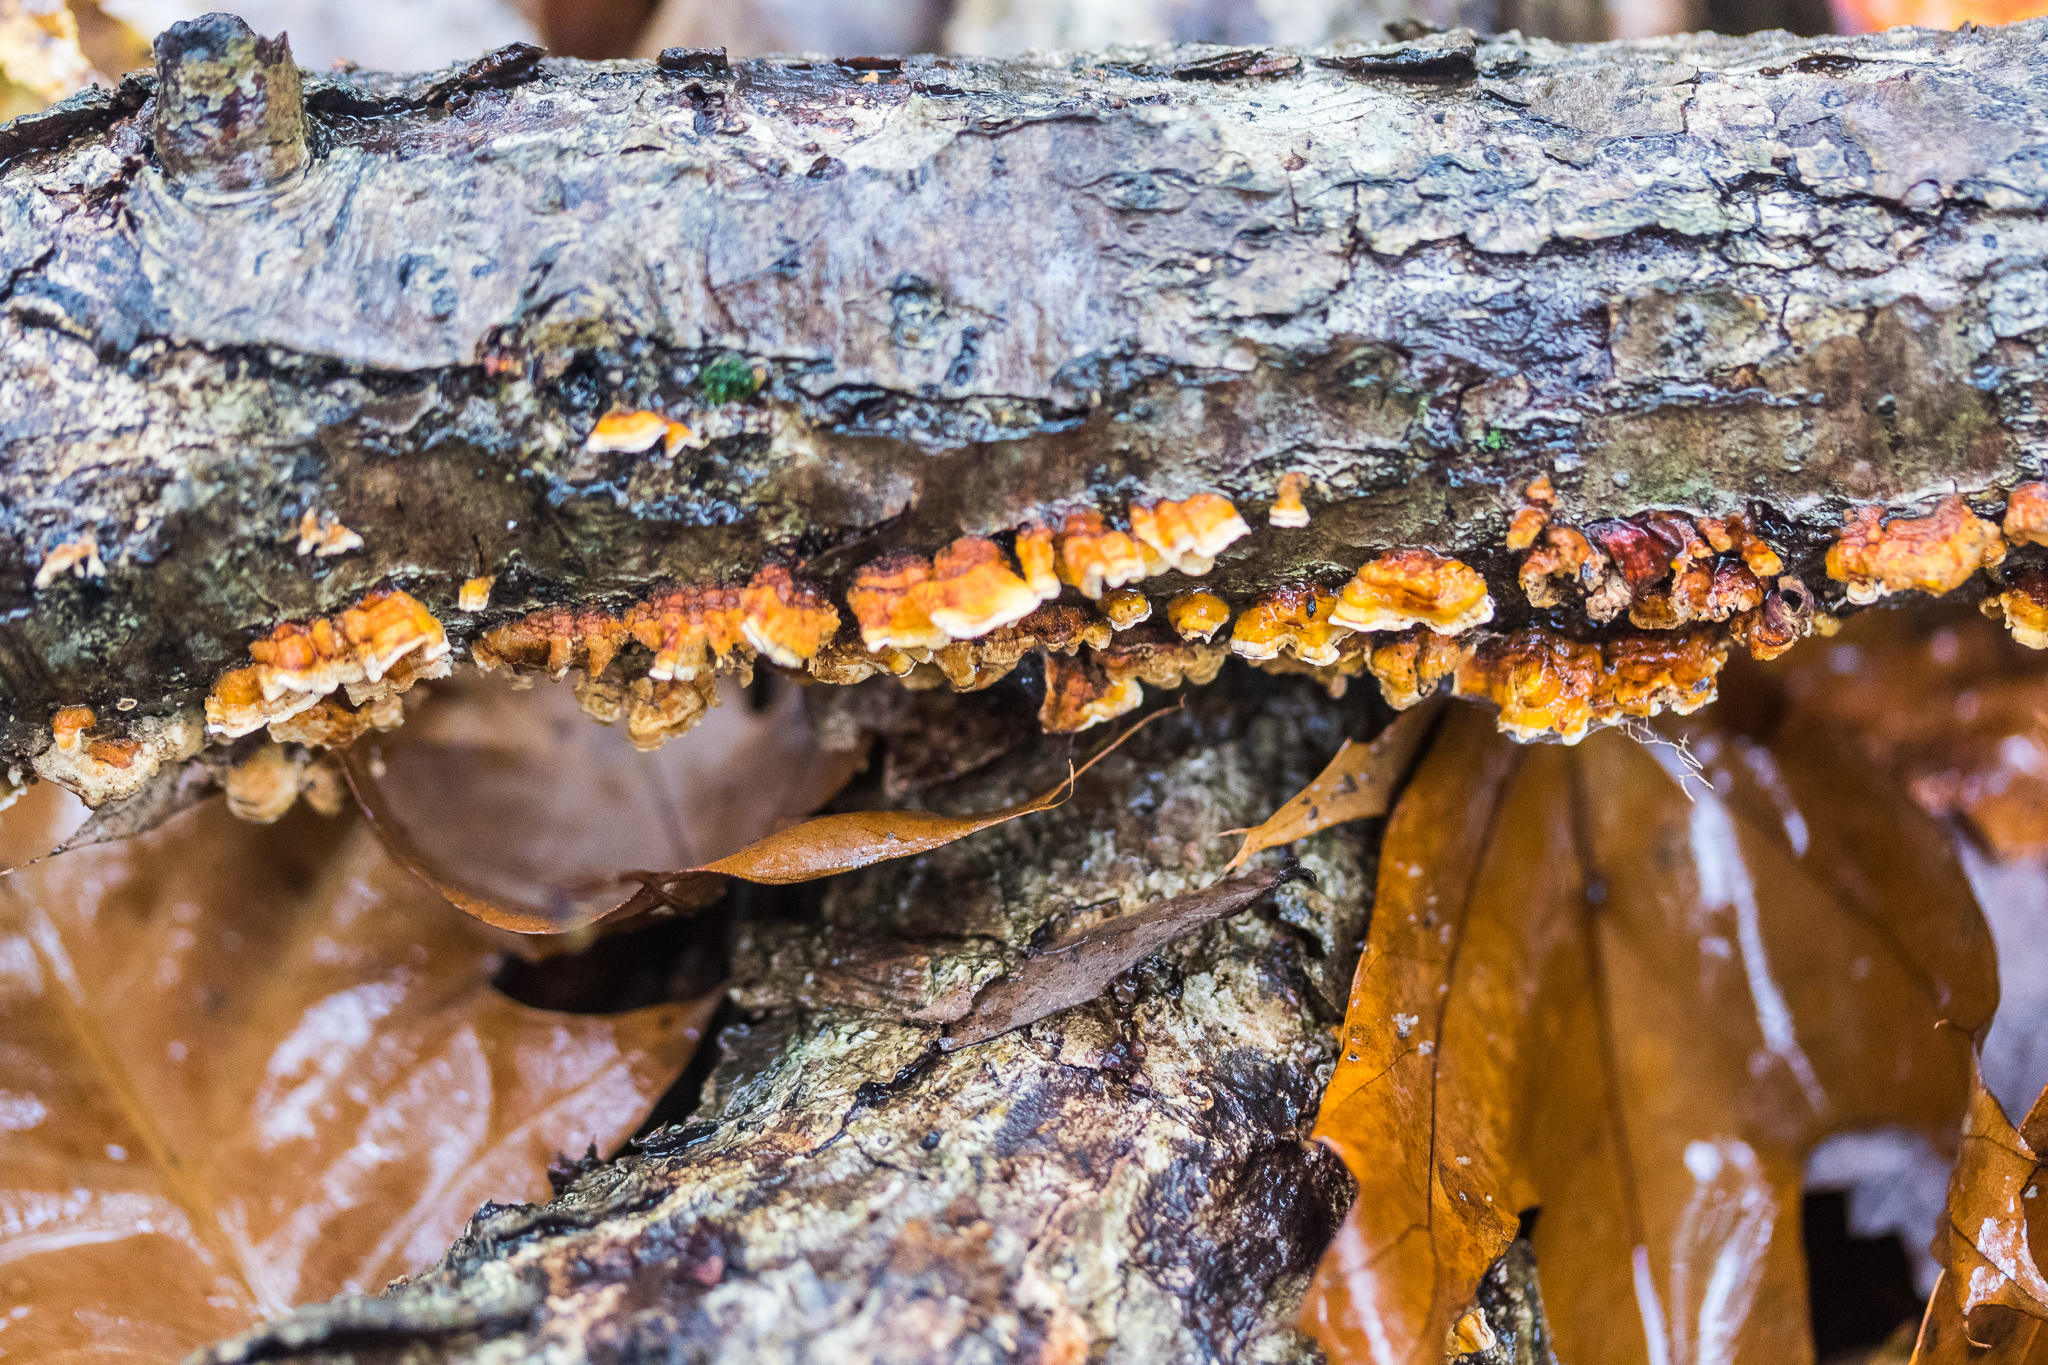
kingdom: Fungi
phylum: Basidiomycota
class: Agaricomycetes
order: Russulales
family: Stereaceae
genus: Stereum
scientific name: Stereum complicatum
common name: Crowded parchment
